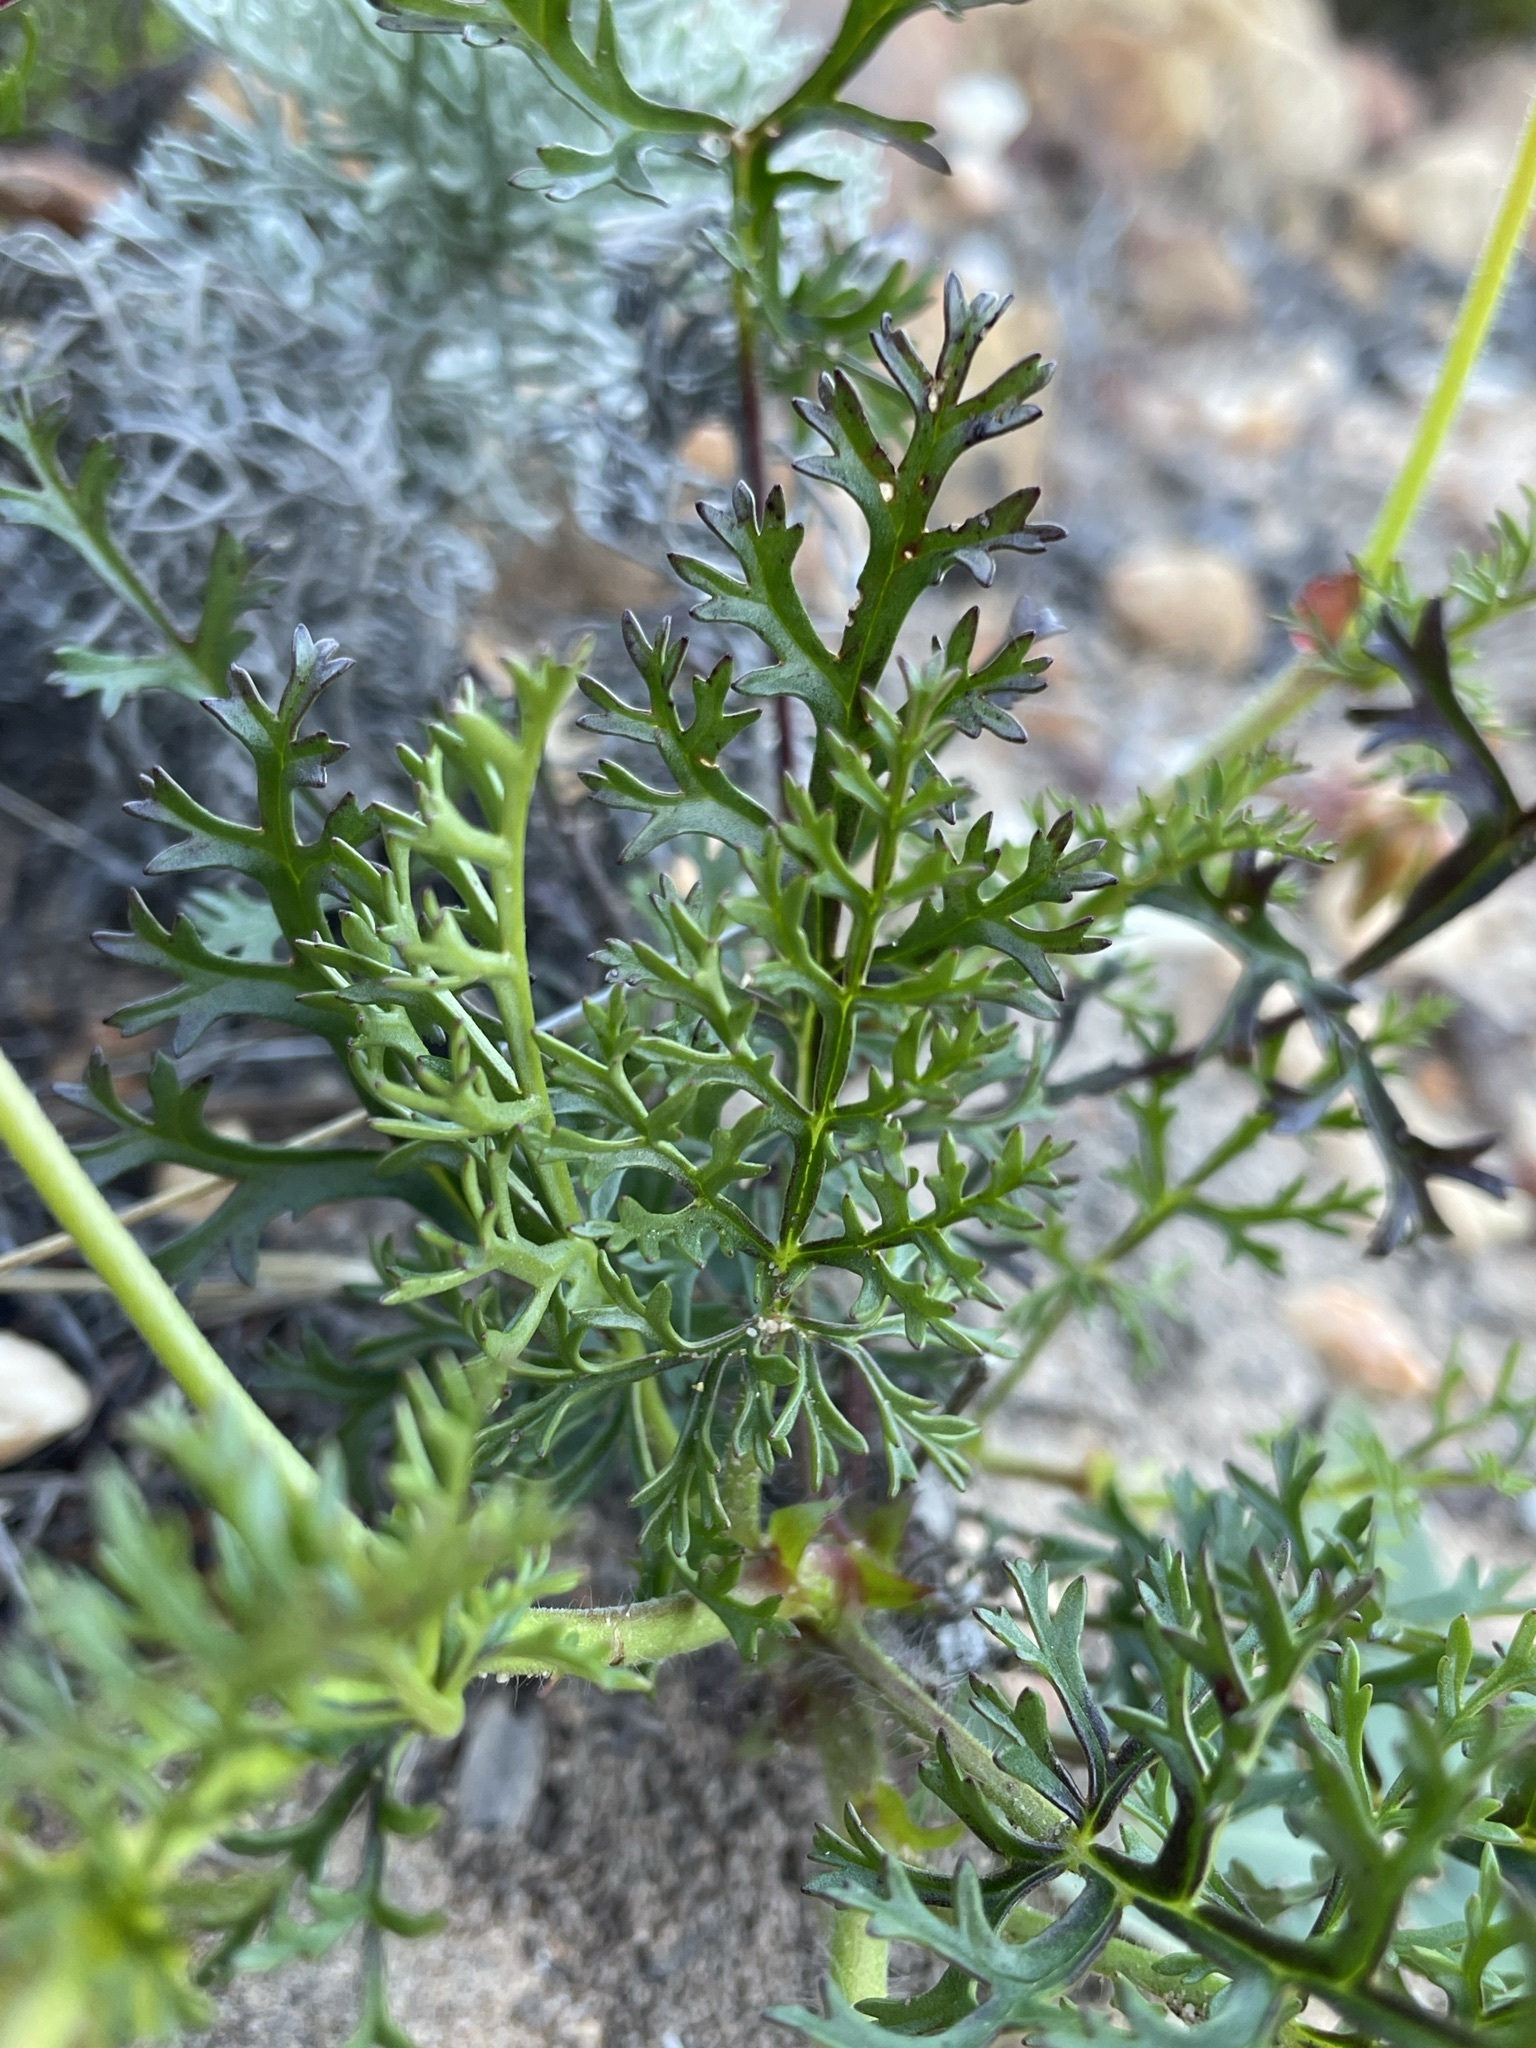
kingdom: Plantae
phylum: Tracheophyta
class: Magnoliopsida
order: Geraniales
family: Geraniaceae
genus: Pelargonium
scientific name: Pelargonium myrrhifolium
